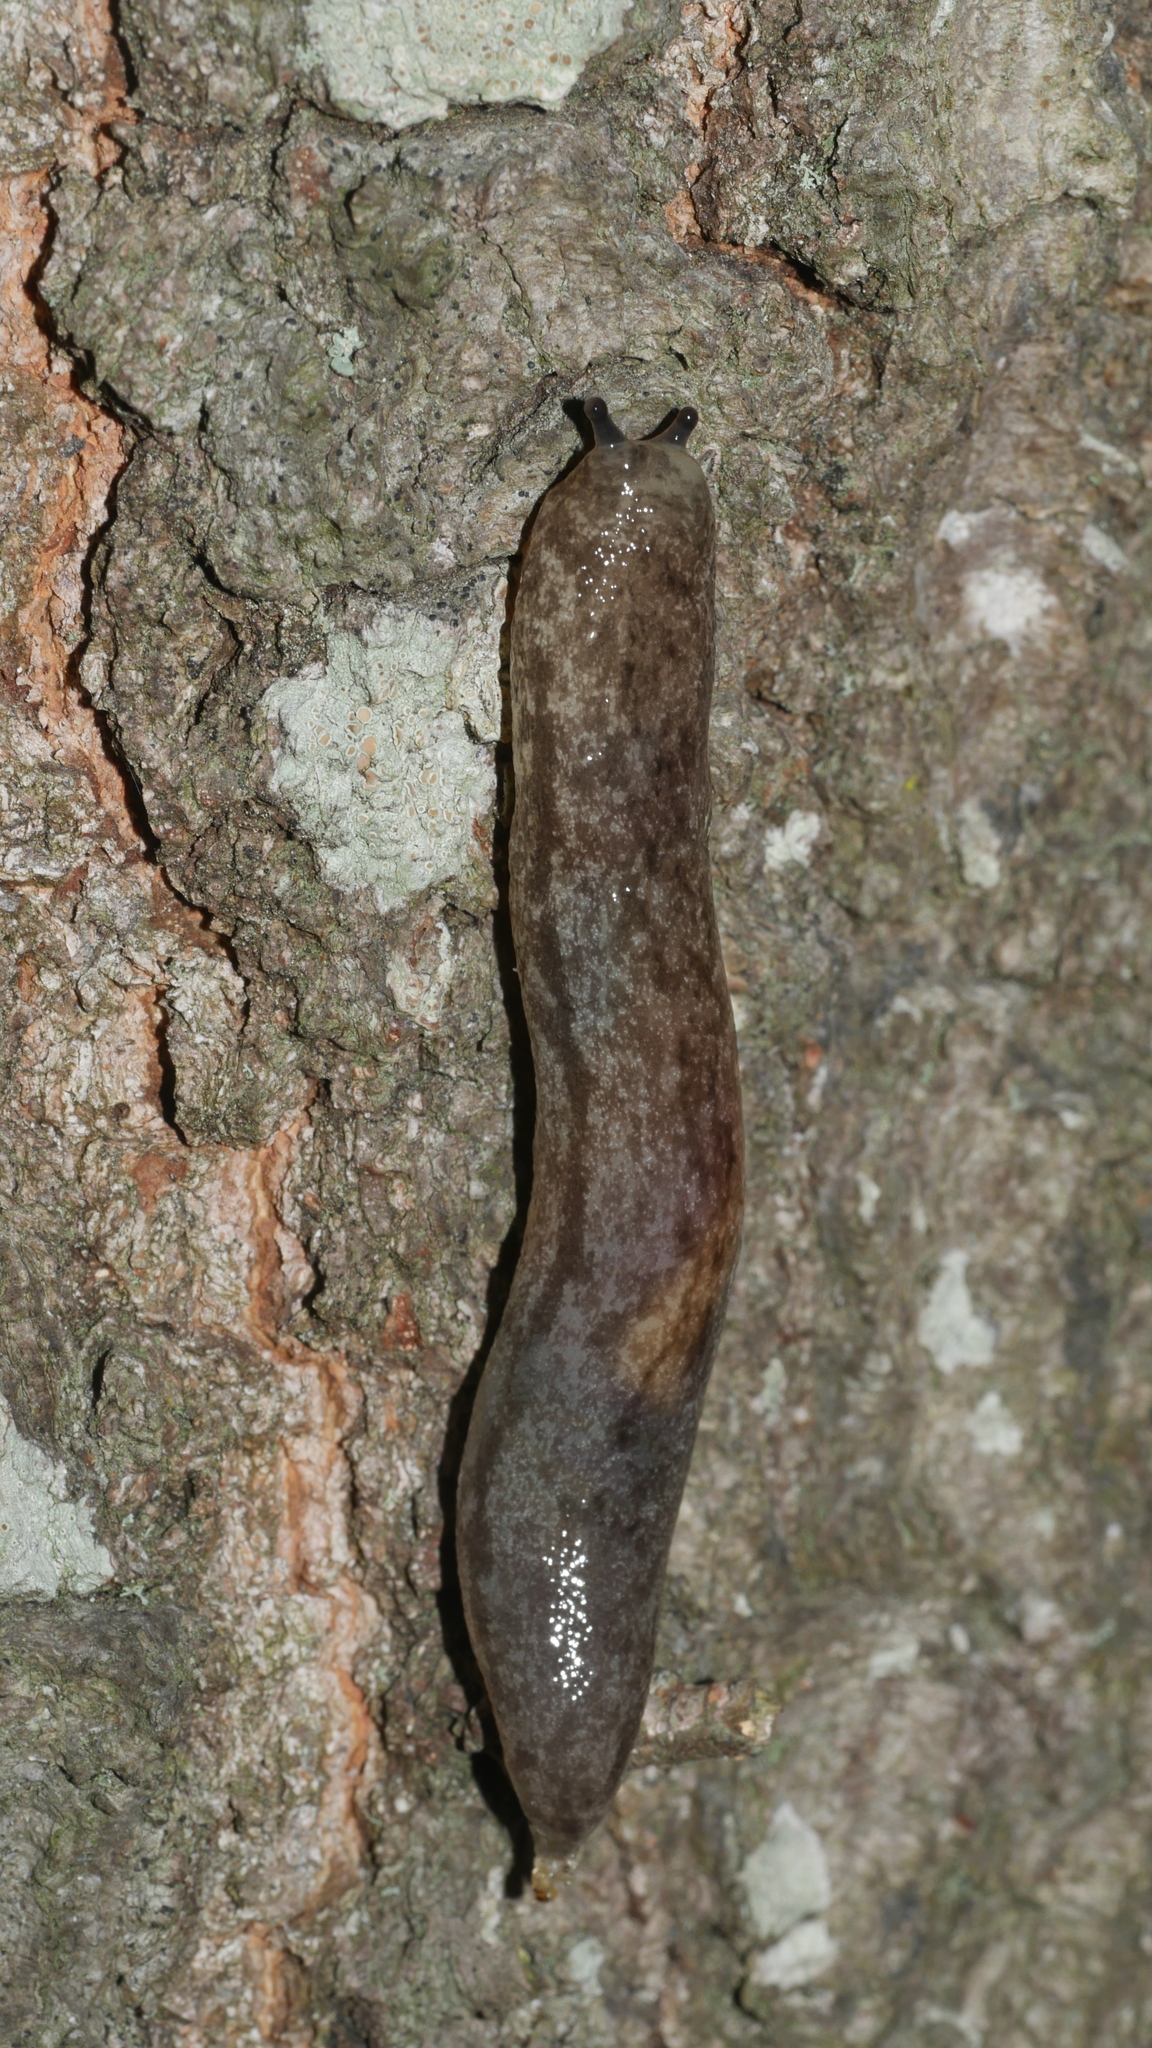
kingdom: Animalia
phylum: Mollusca
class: Gastropoda
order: Stylommatophora
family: Philomycidae
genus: Megapallifera
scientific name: Megapallifera mutabilis
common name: Changeable mantleslug
